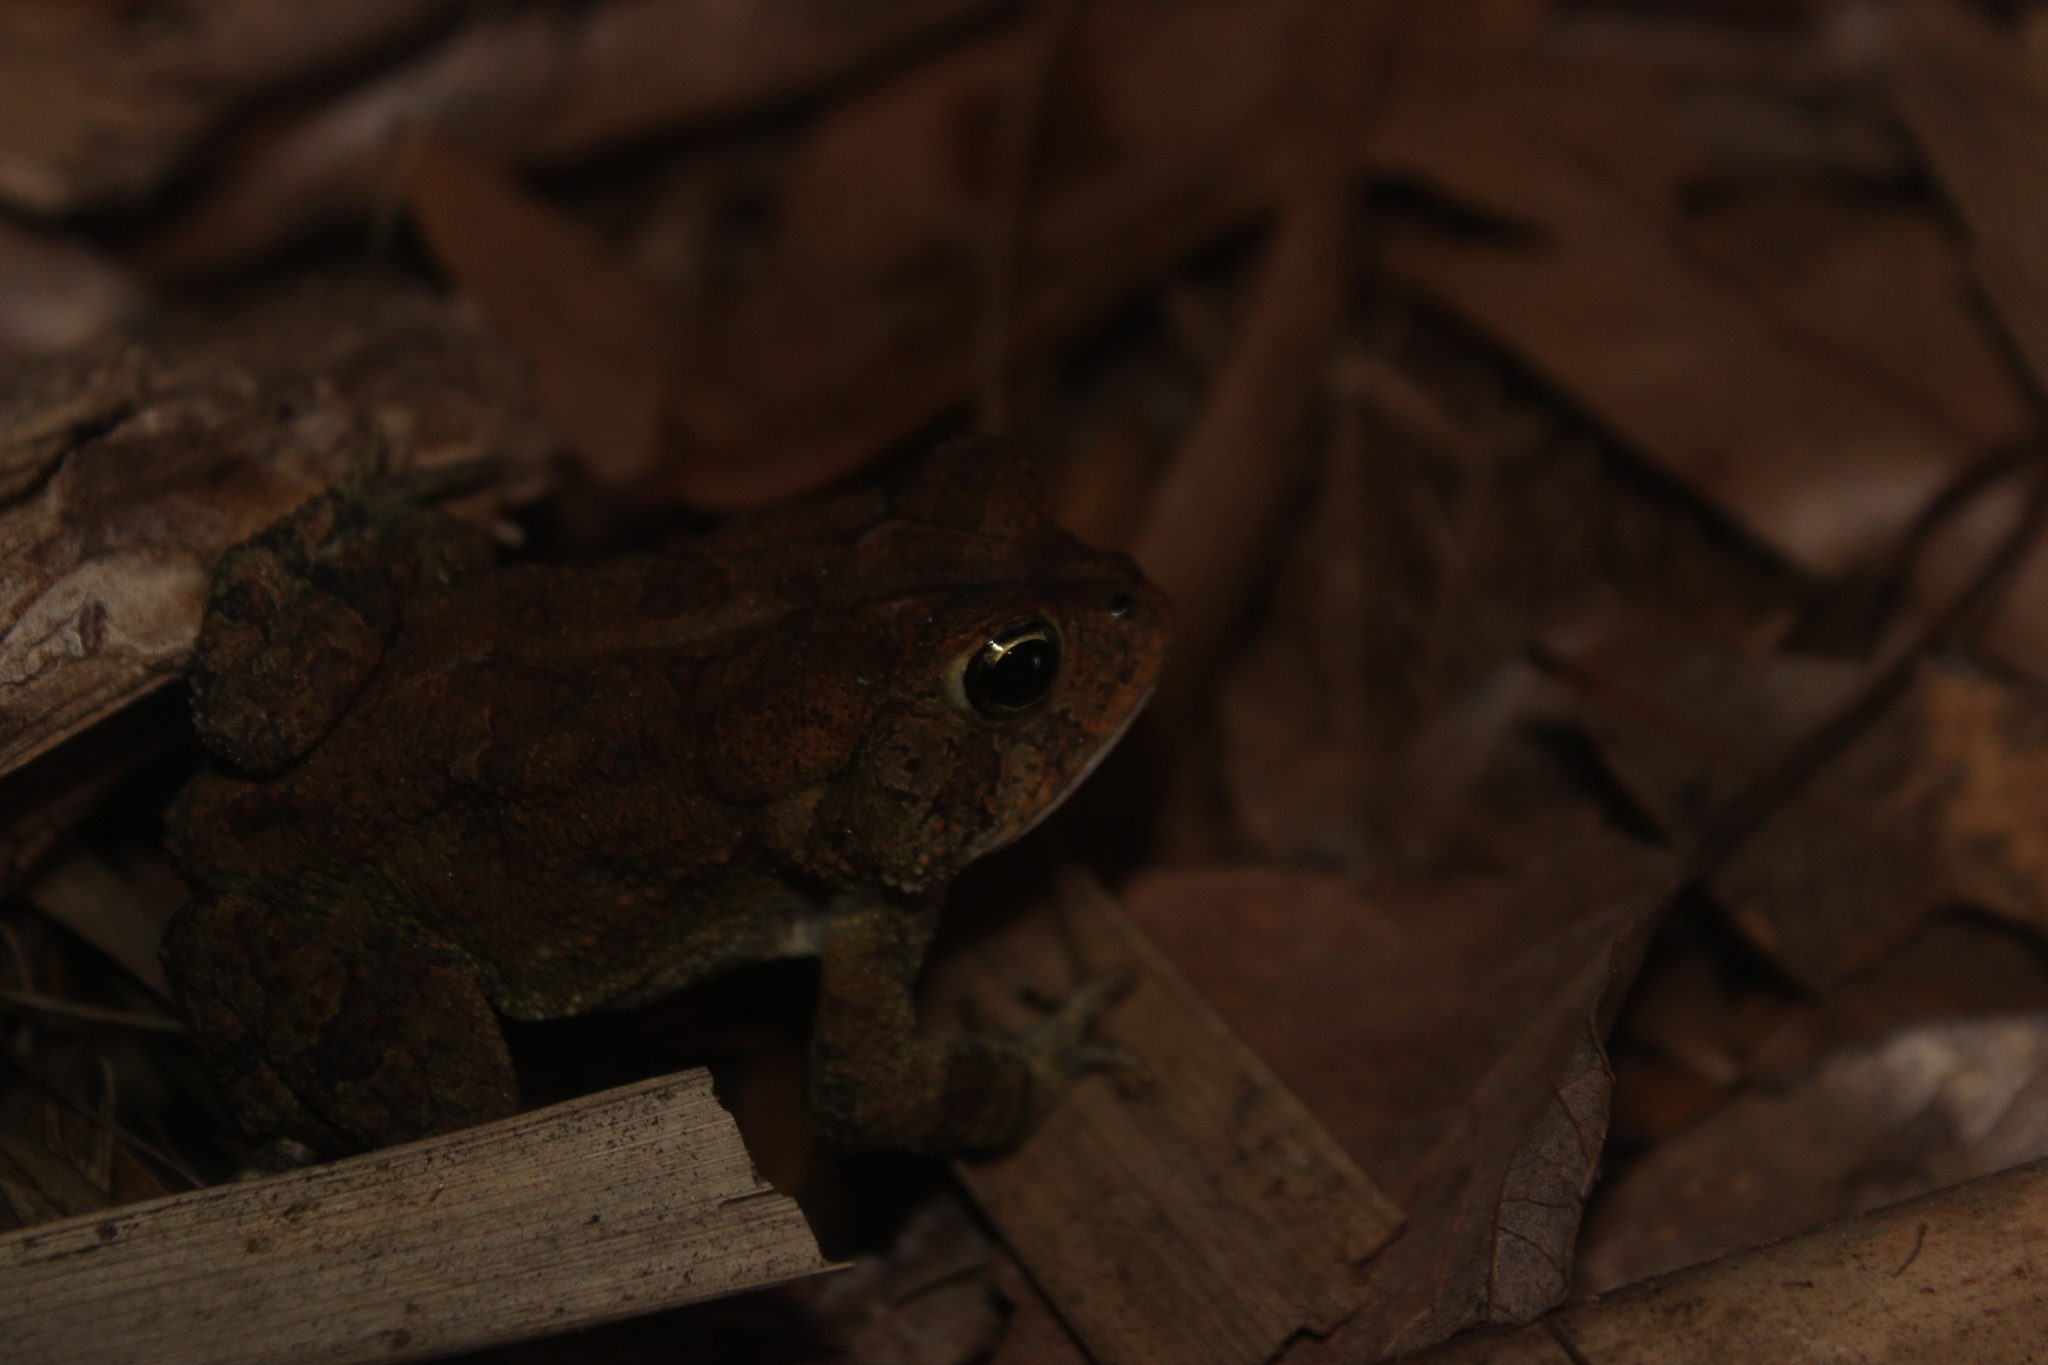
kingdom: Animalia
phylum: Chordata
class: Amphibia
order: Anura
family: Bufonidae
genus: Anaxyrus
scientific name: Anaxyrus terrestris
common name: Southern toad
